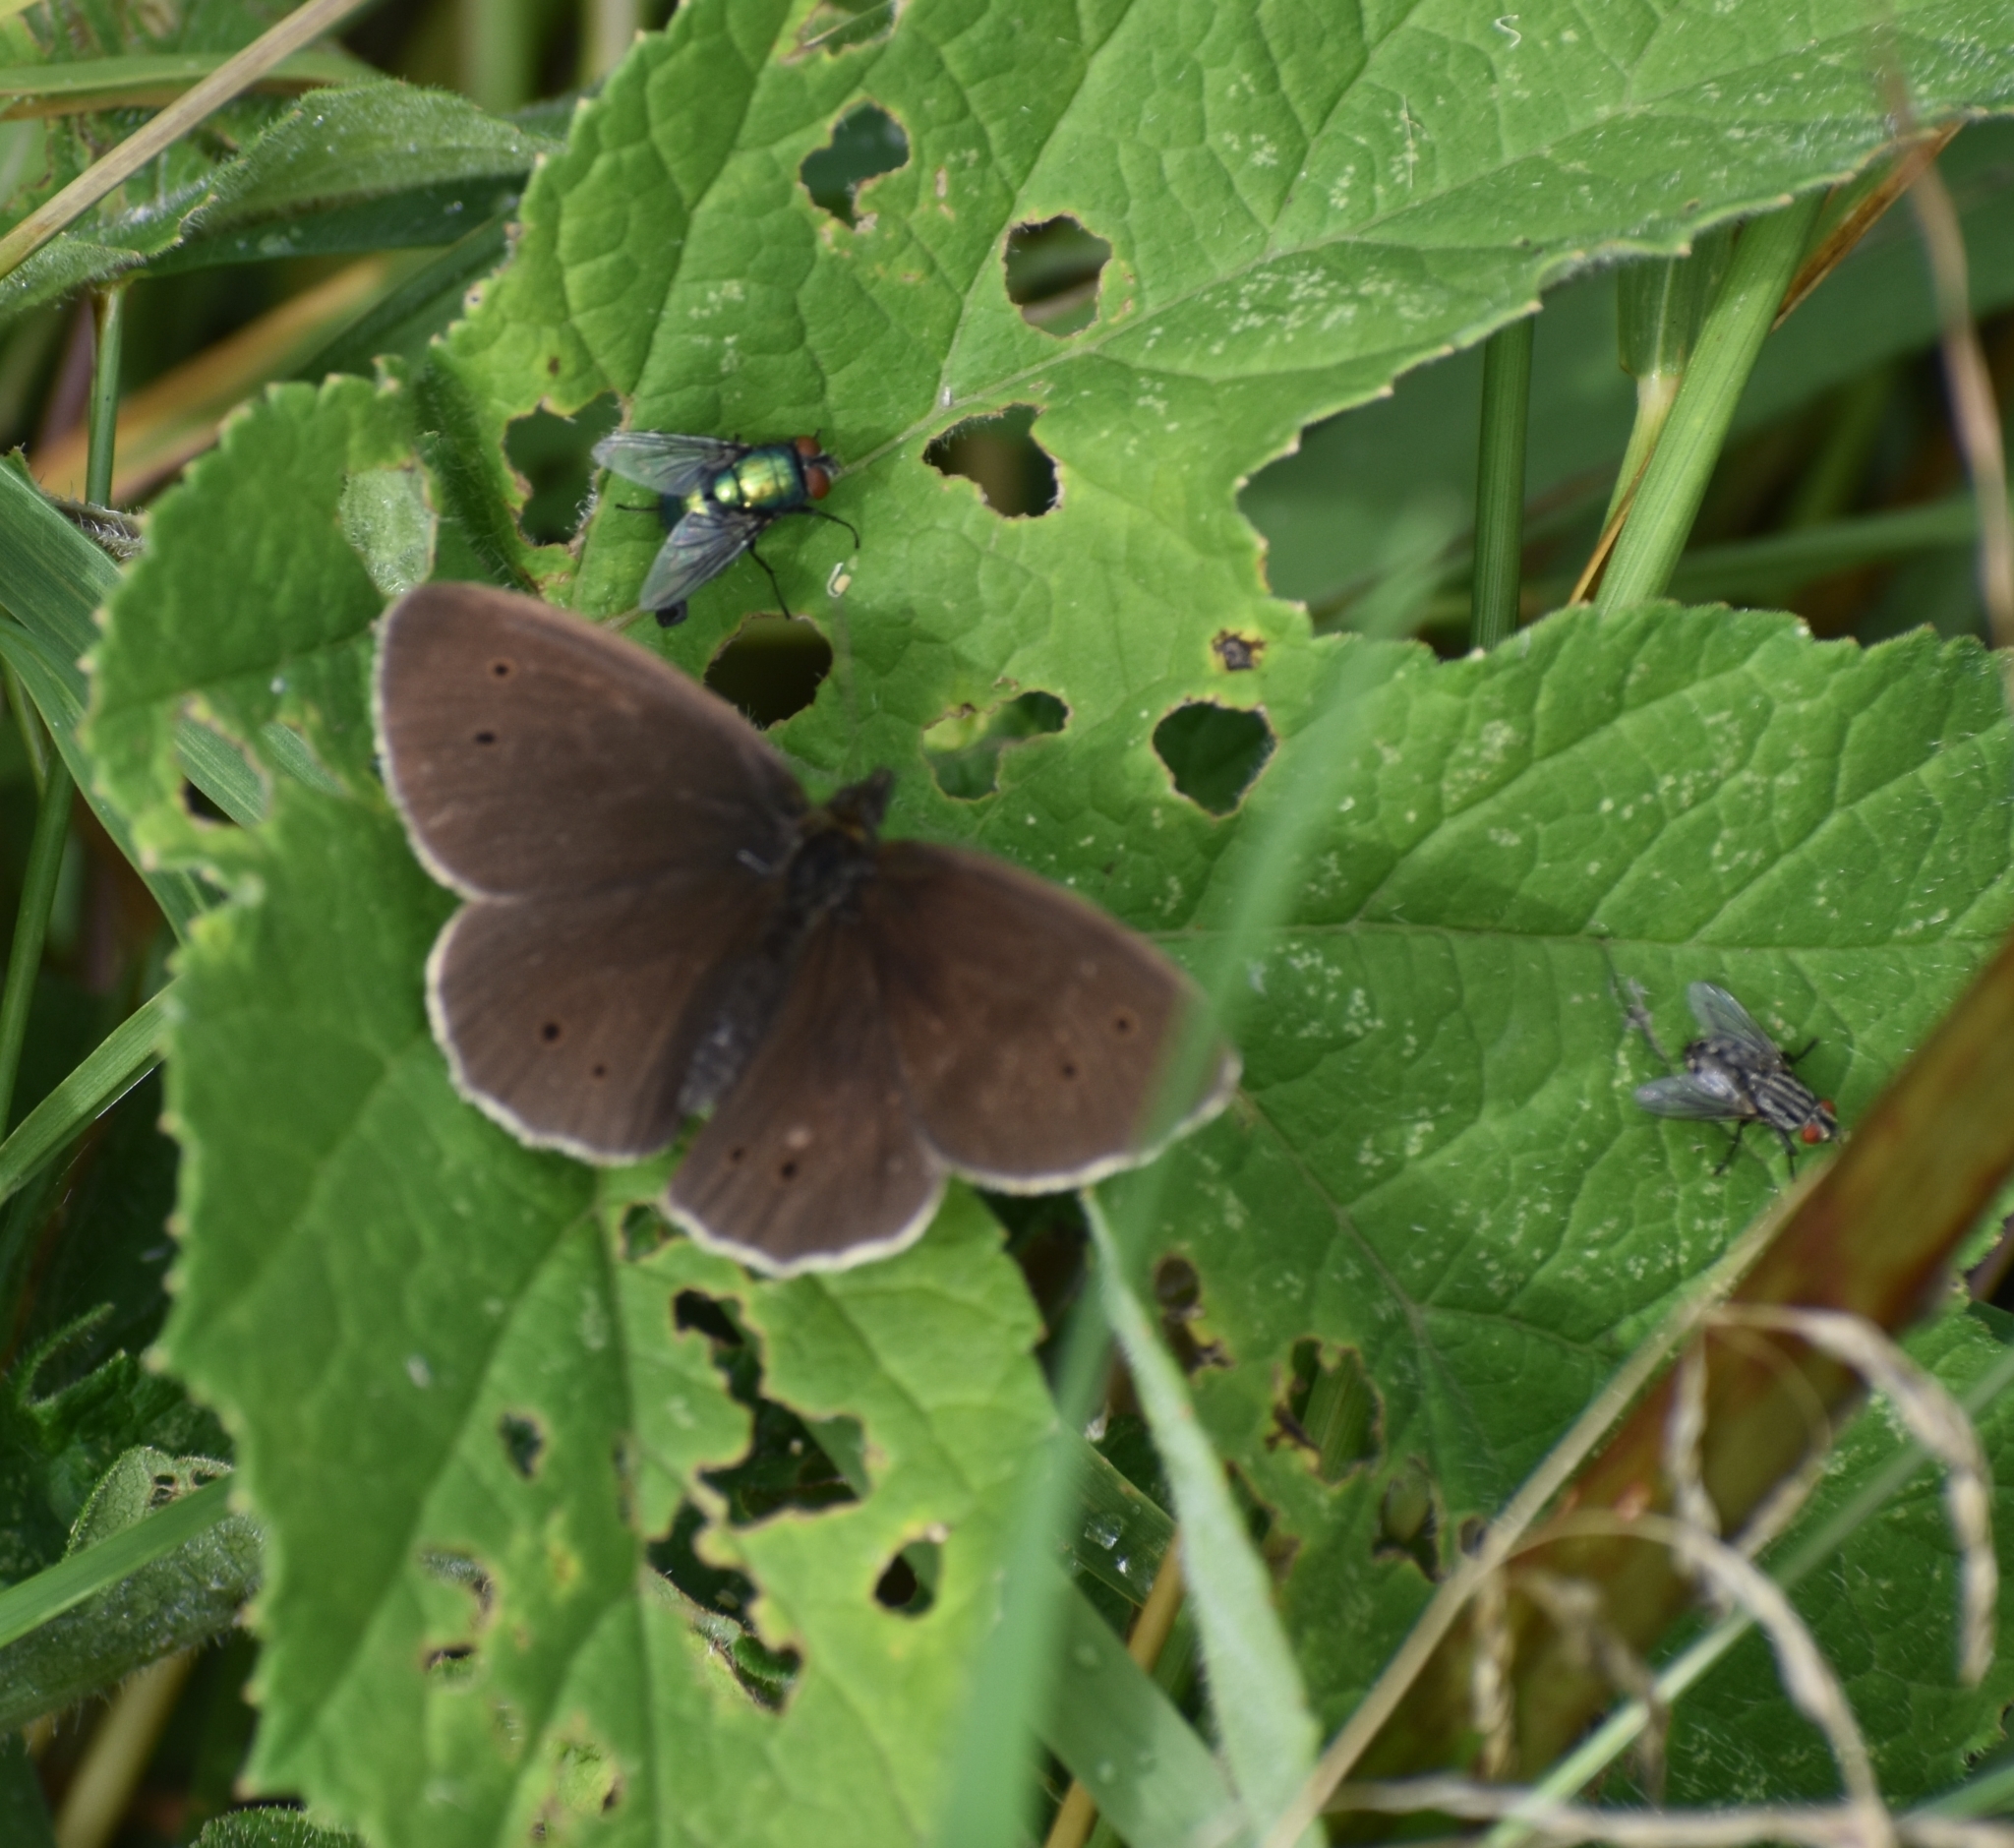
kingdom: Animalia
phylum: Arthropoda
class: Insecta
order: Lepidoptera
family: Nymphalidae
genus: Aphantopus
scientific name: Aphantopus hyperantus
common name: Ringlet
